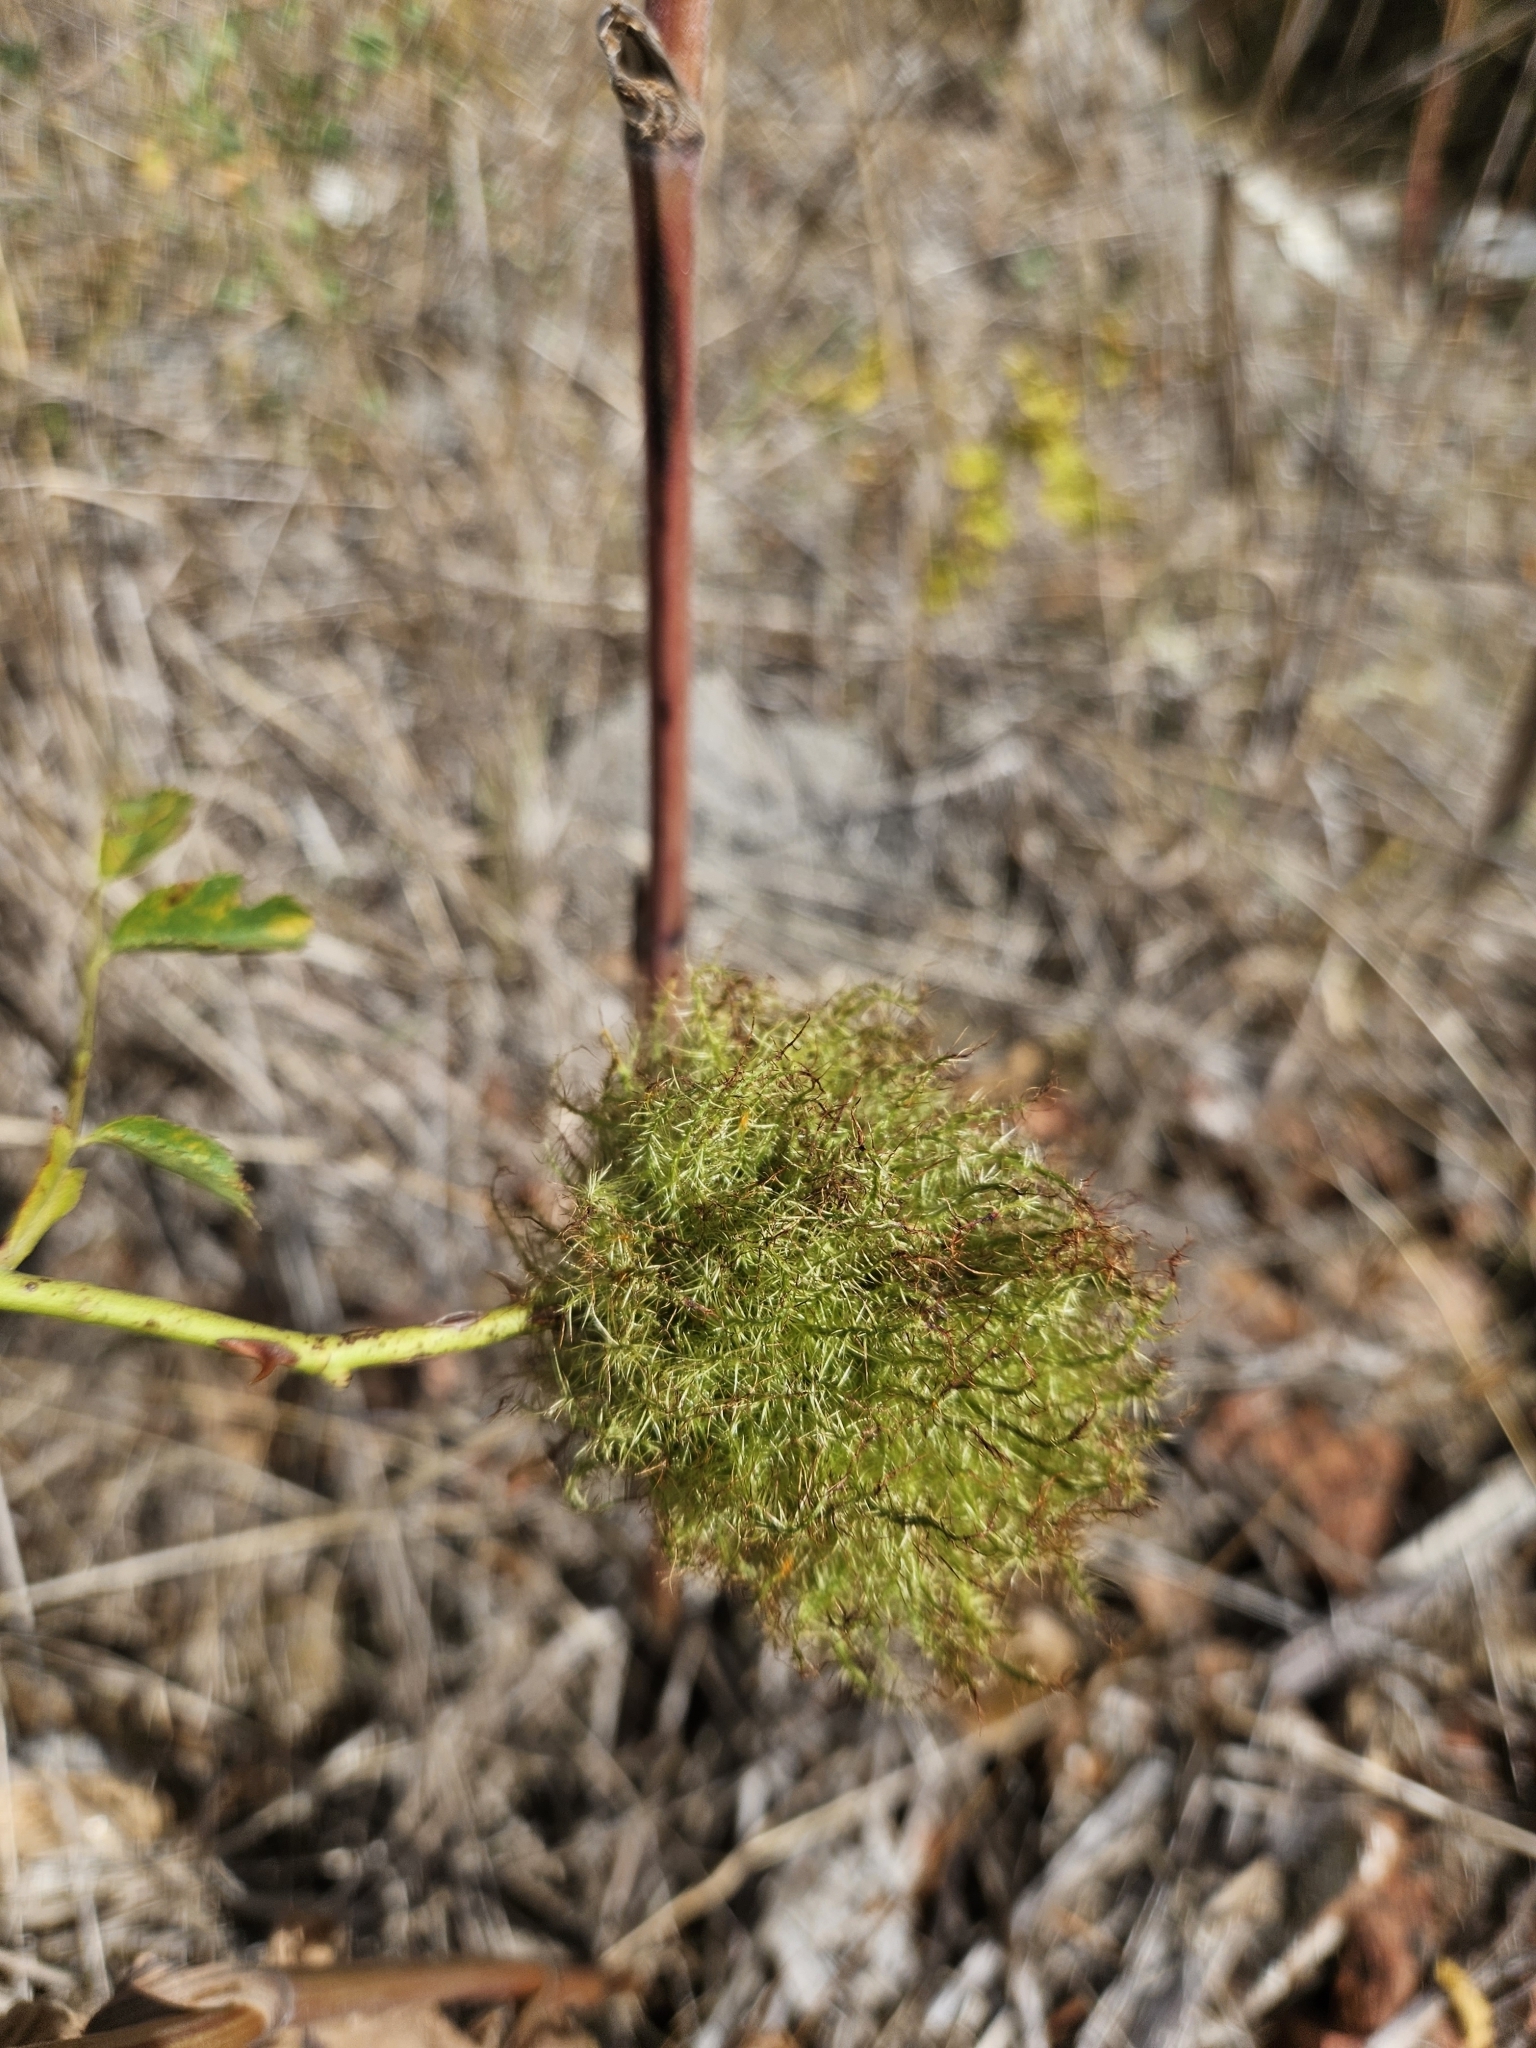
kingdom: Animalia
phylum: Arthropoda
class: Insecta
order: Hymenoptera
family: Cynipidae
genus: Diplolepis
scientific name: Diplolepis rosae
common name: Bedeguar gall
